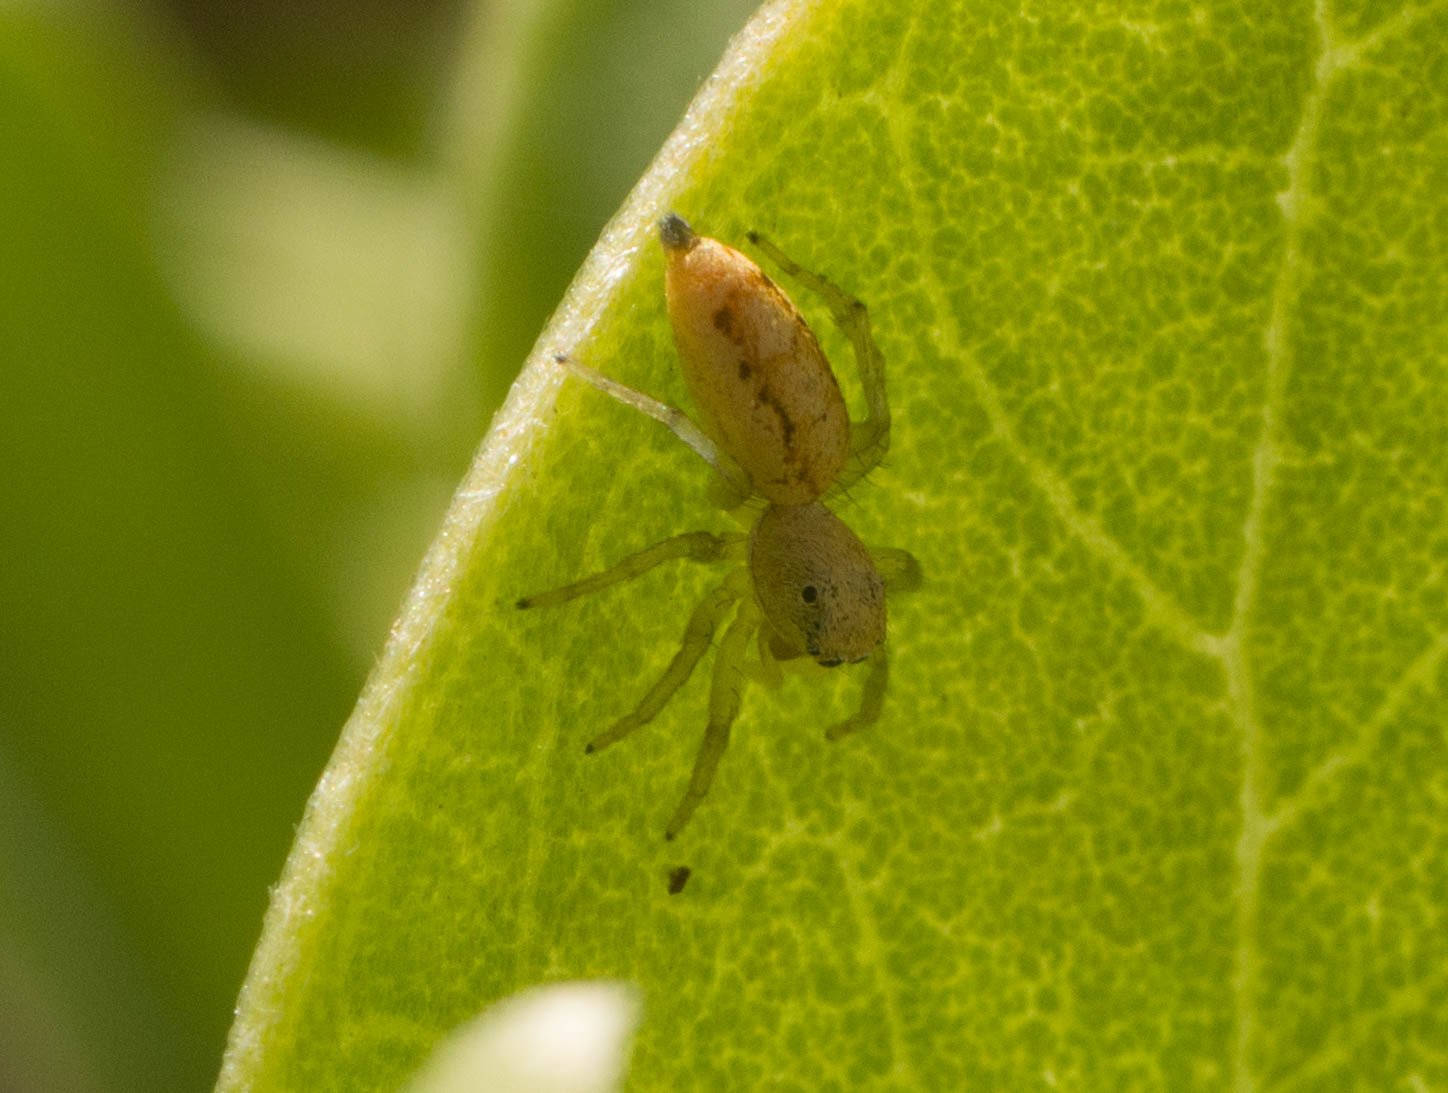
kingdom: Animalia
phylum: Arthropoda
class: Arachnida
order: Araneae
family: Salticidae
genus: Cosmophasis
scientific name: Cosmophasis lami
